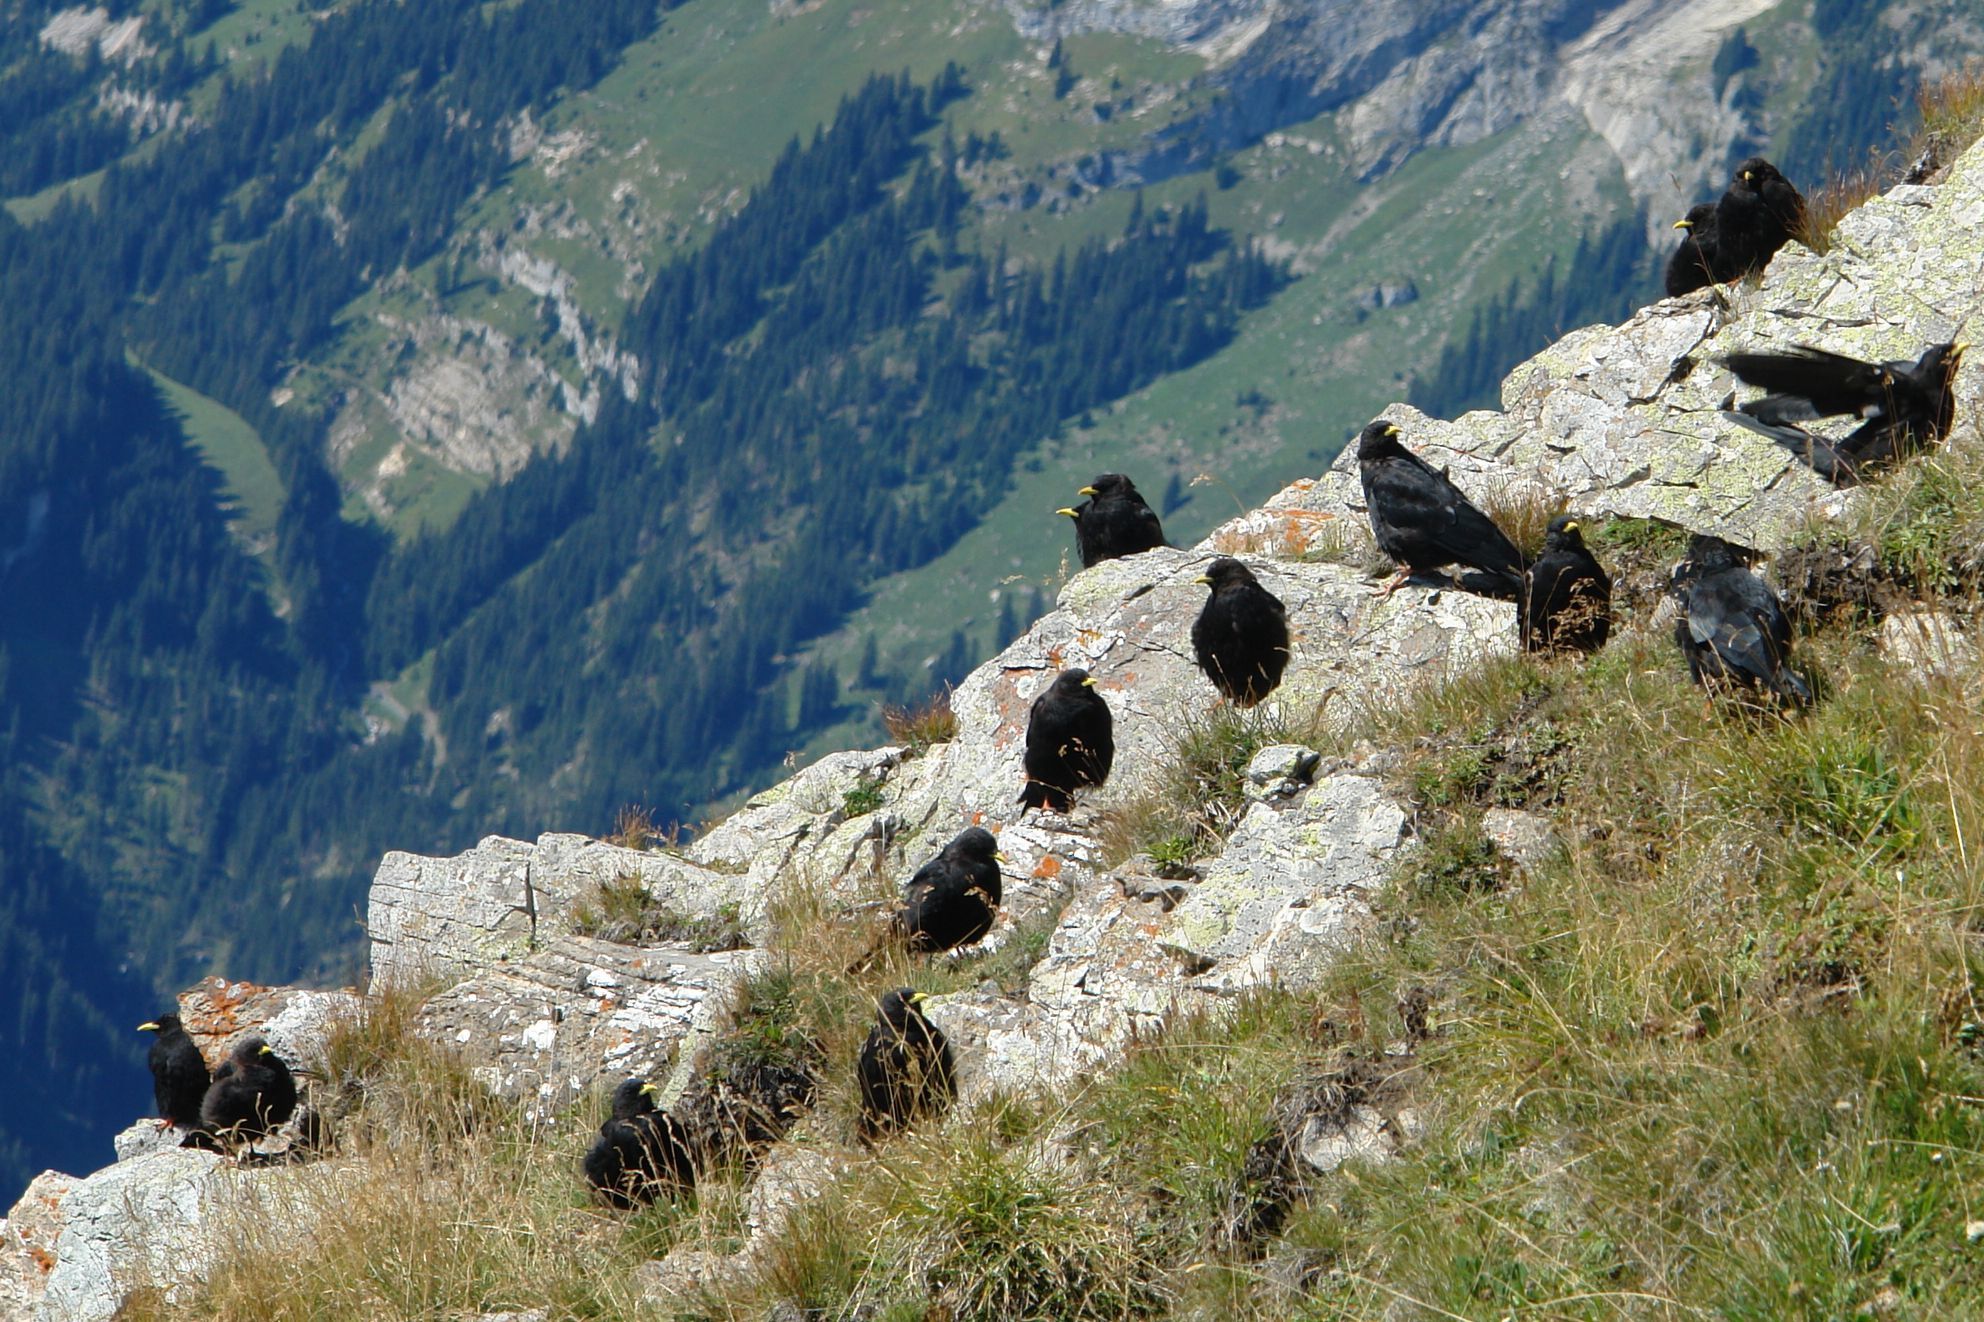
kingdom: Animalia
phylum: Chordata
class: Aves
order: Passeriformes
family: Corvidae
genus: Pyrrhocorax
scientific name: Pyrrhocorax graculus
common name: Alpine chough
